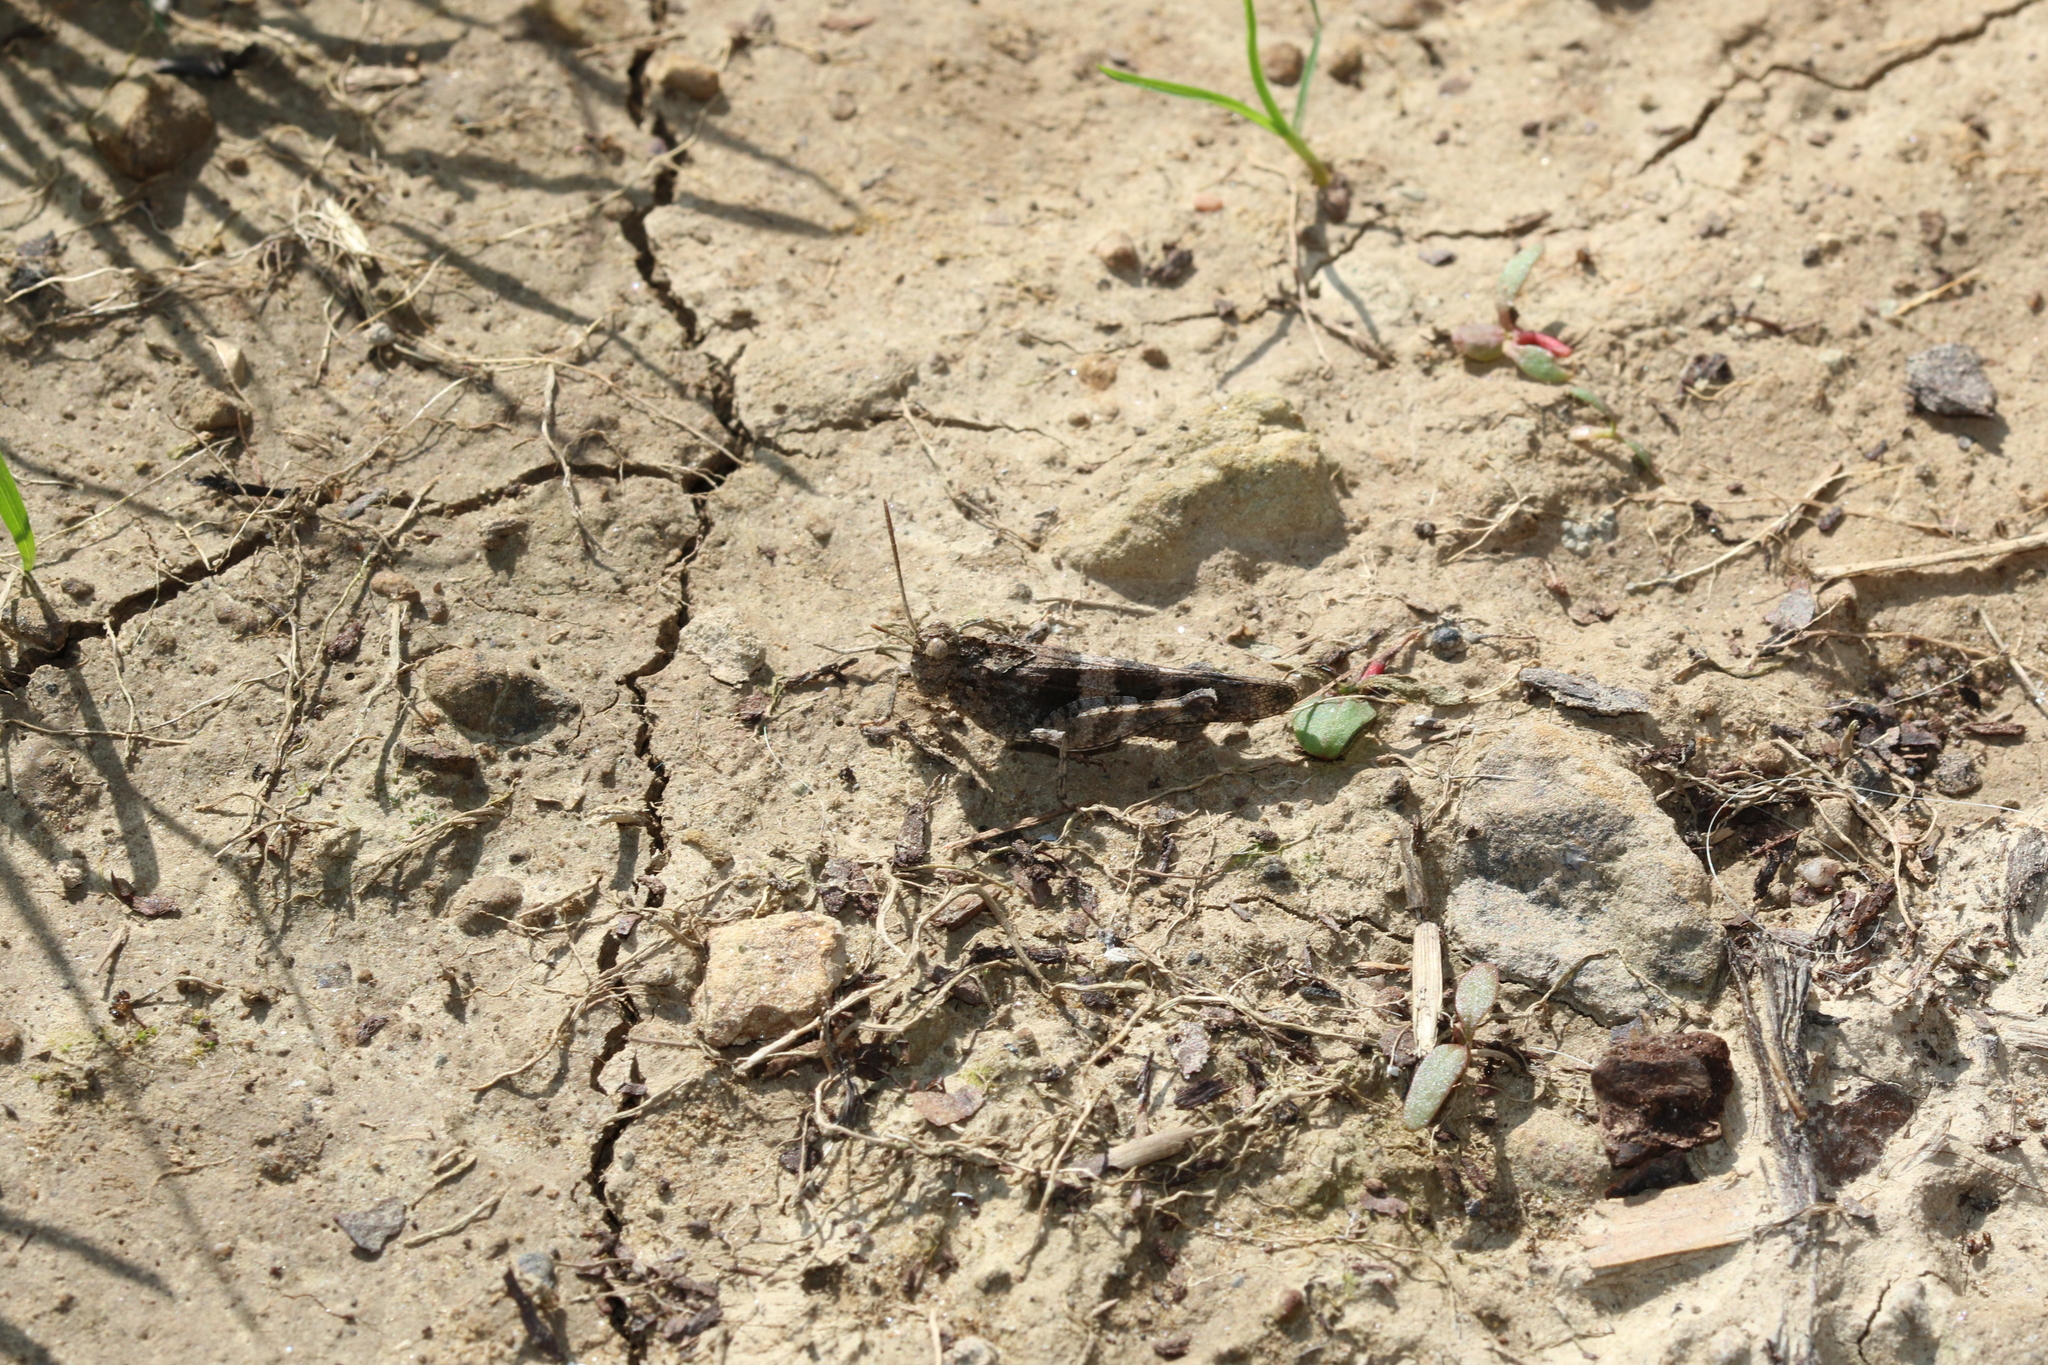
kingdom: Animalia
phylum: Arthropoda
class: Insecta
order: Orthoptera
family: Acrididae
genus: Oedipoda
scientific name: Oedipoda caerulescens
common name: Blue-winged grasshopper
